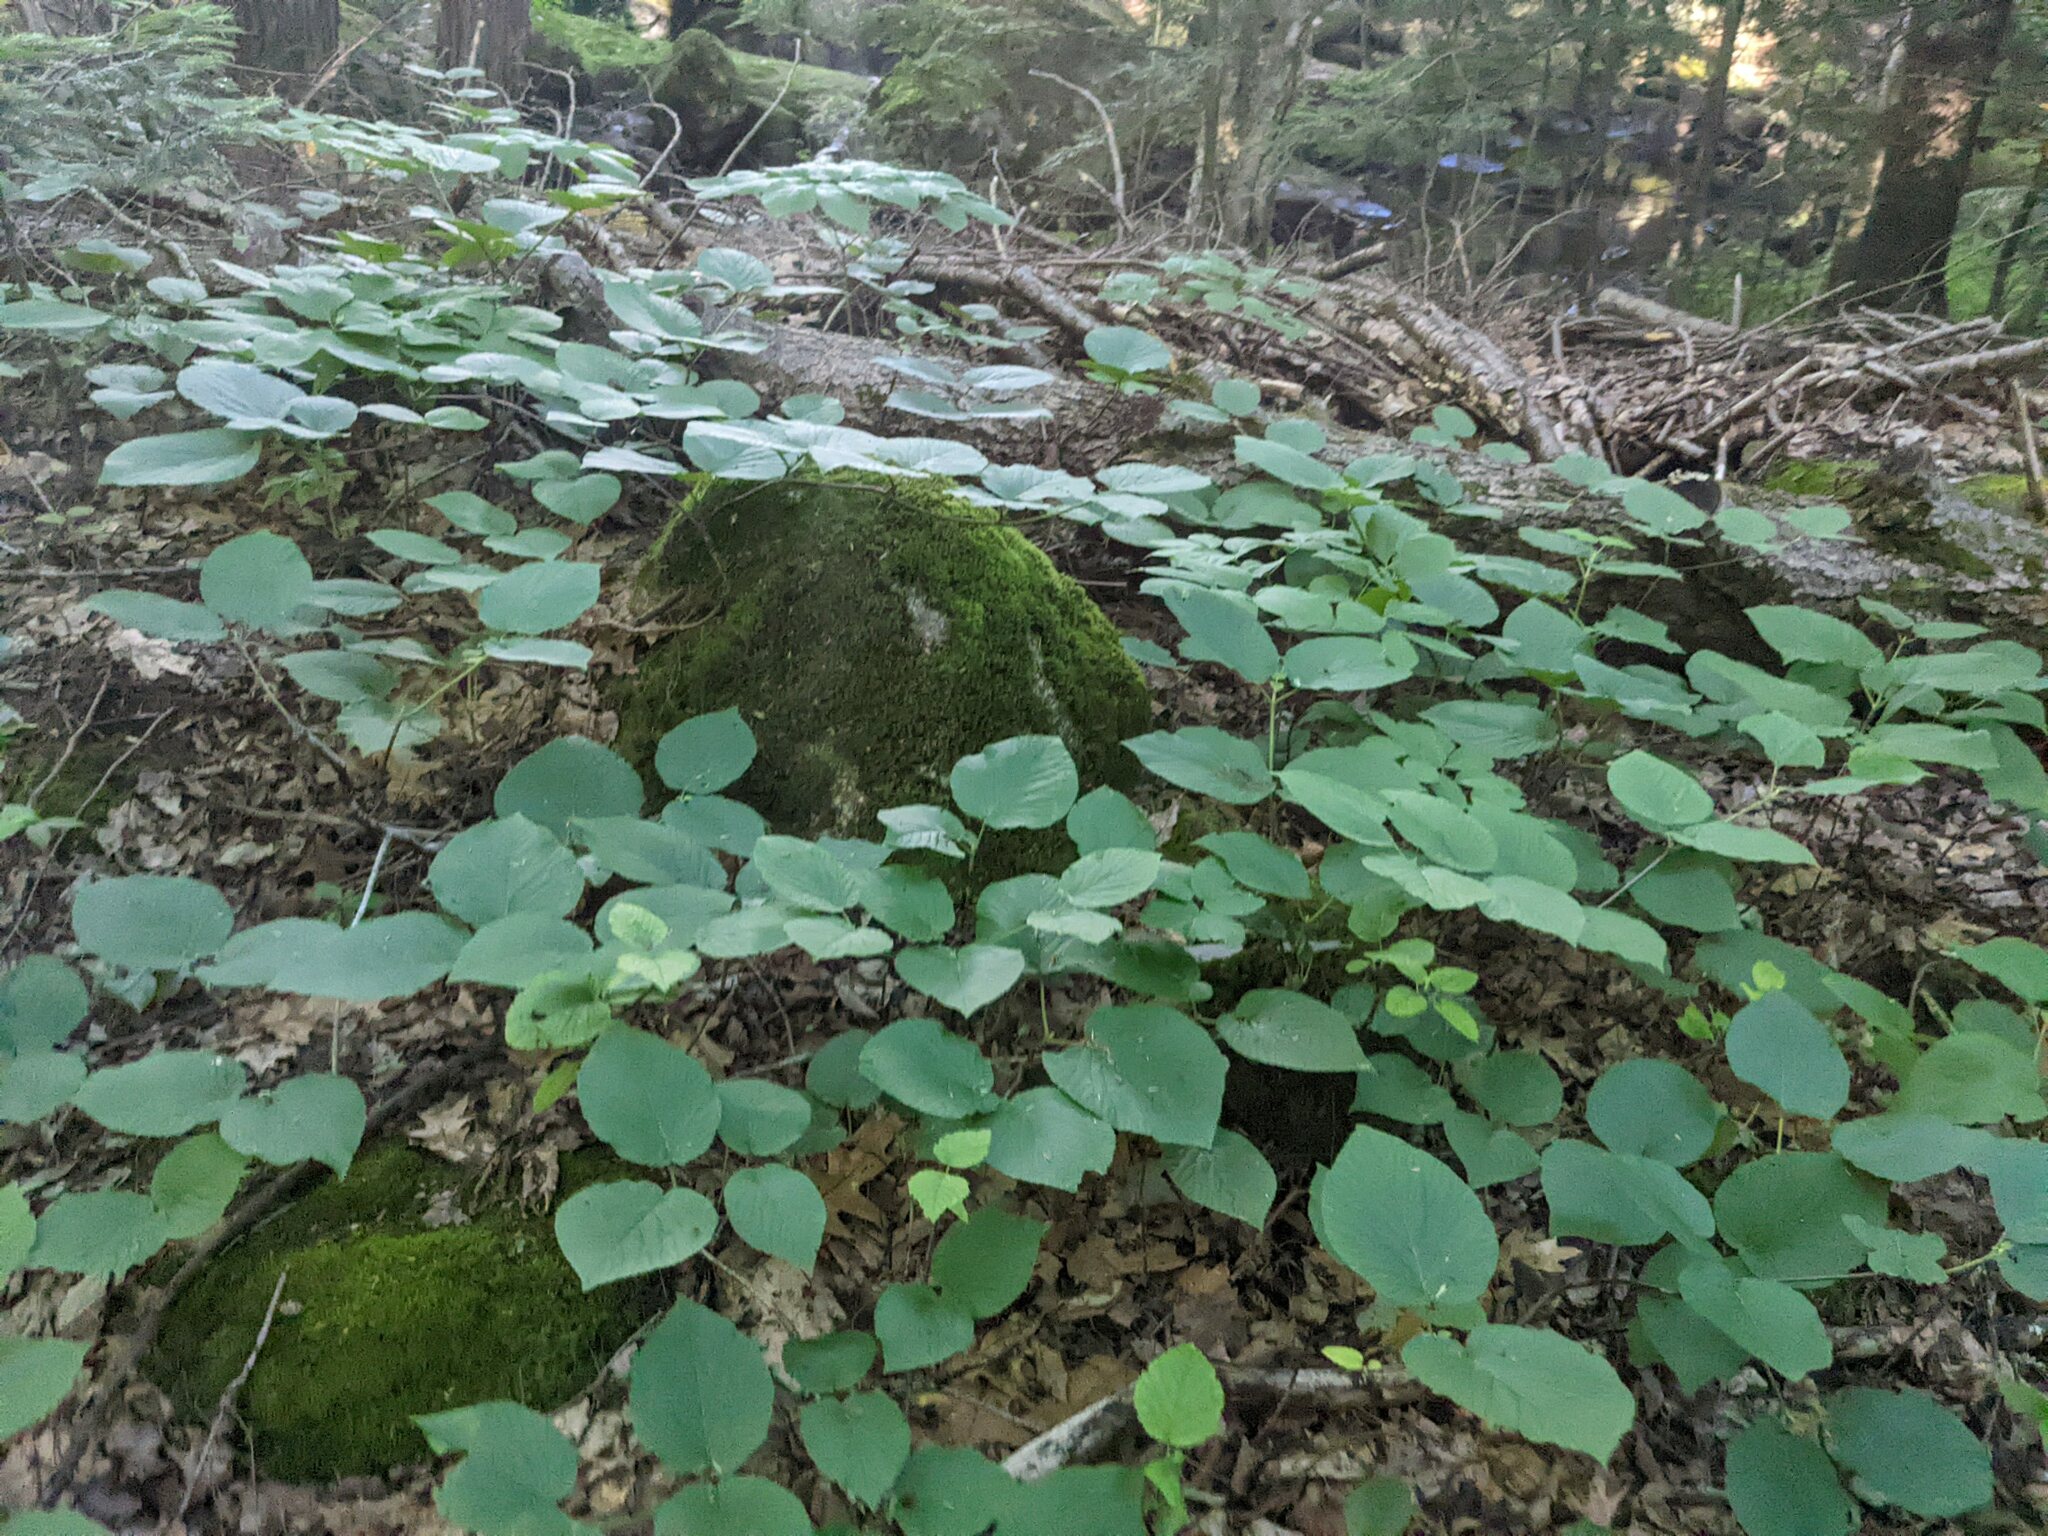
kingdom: Plantae
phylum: Tracheophyta
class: Magnoliopsida
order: Dipsacales
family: Viburnaceae
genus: Viburnum
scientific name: Viburnum lantanoides
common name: Hobblebush
